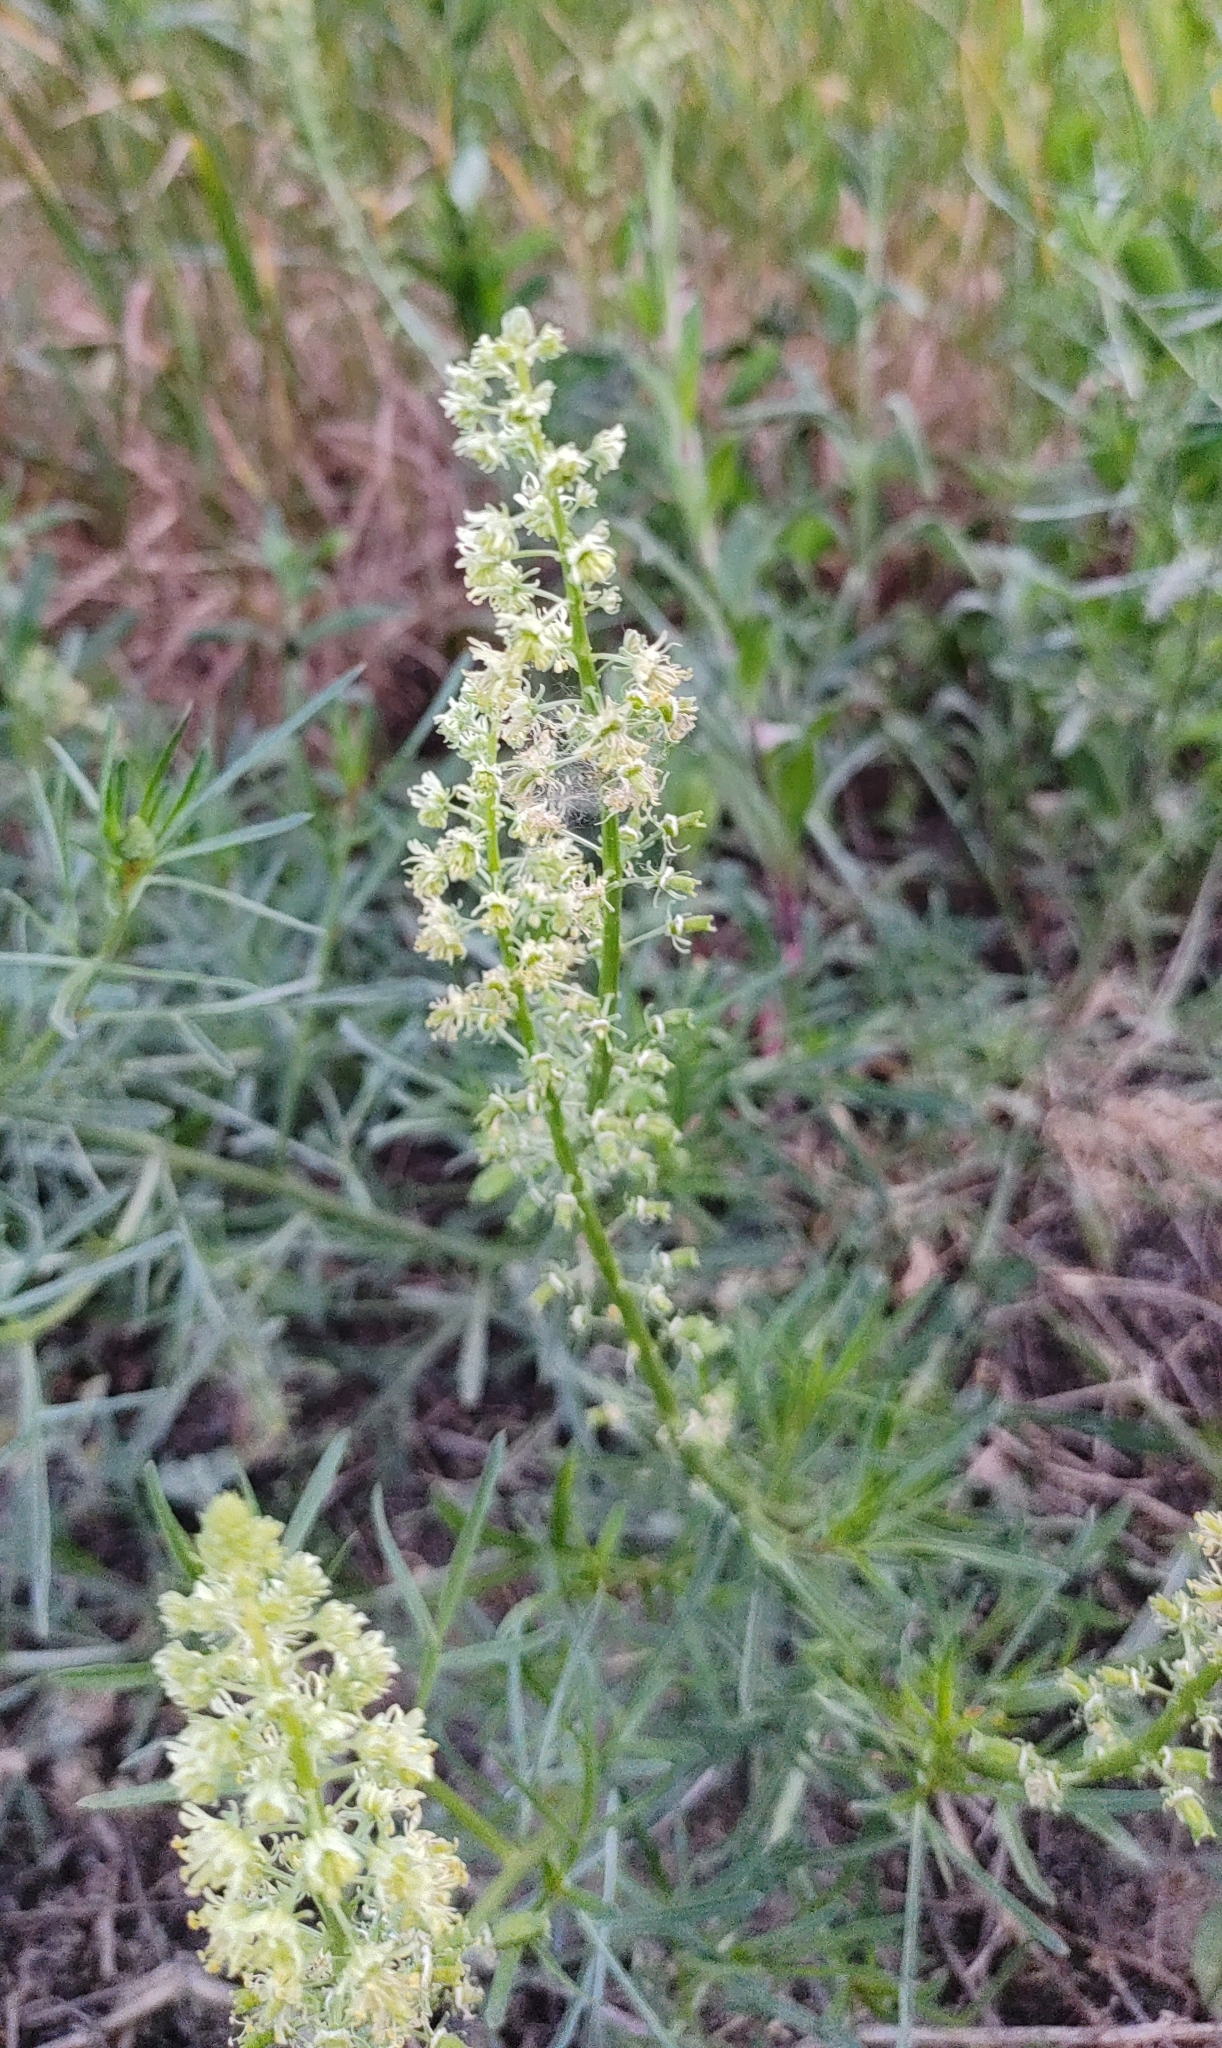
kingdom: Plantae
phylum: Tracheophyta
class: Magnoliopsida
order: Brassicales
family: Resedaceae
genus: Reseda
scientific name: Reseda lutea
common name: Wild mignonette
